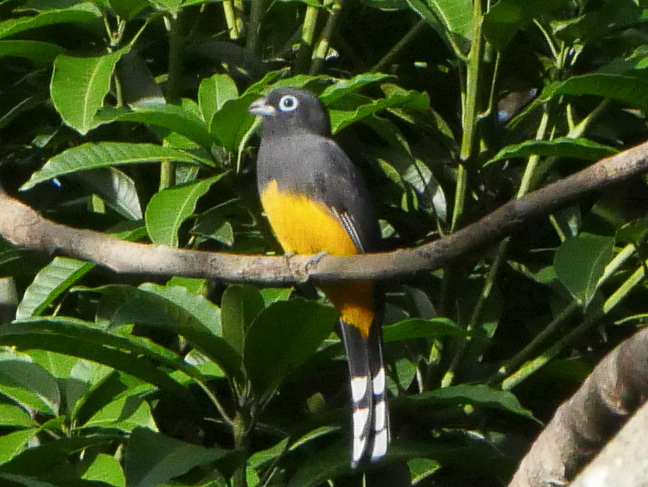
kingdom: Animalia
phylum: Chordata
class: Aves
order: Trogoniformes
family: Trogonidae
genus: Trogon
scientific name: Trogon melanocephalus
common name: Black-headed trogon
